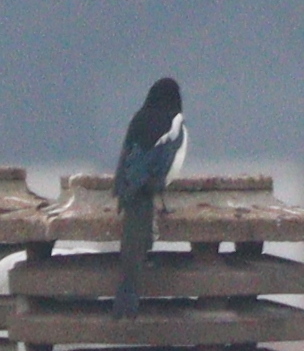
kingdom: Animalia
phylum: Chordata
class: Aves
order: Passeriformes
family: Corvidae
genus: Pica
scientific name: Pica pica
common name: Eurasian magpie
